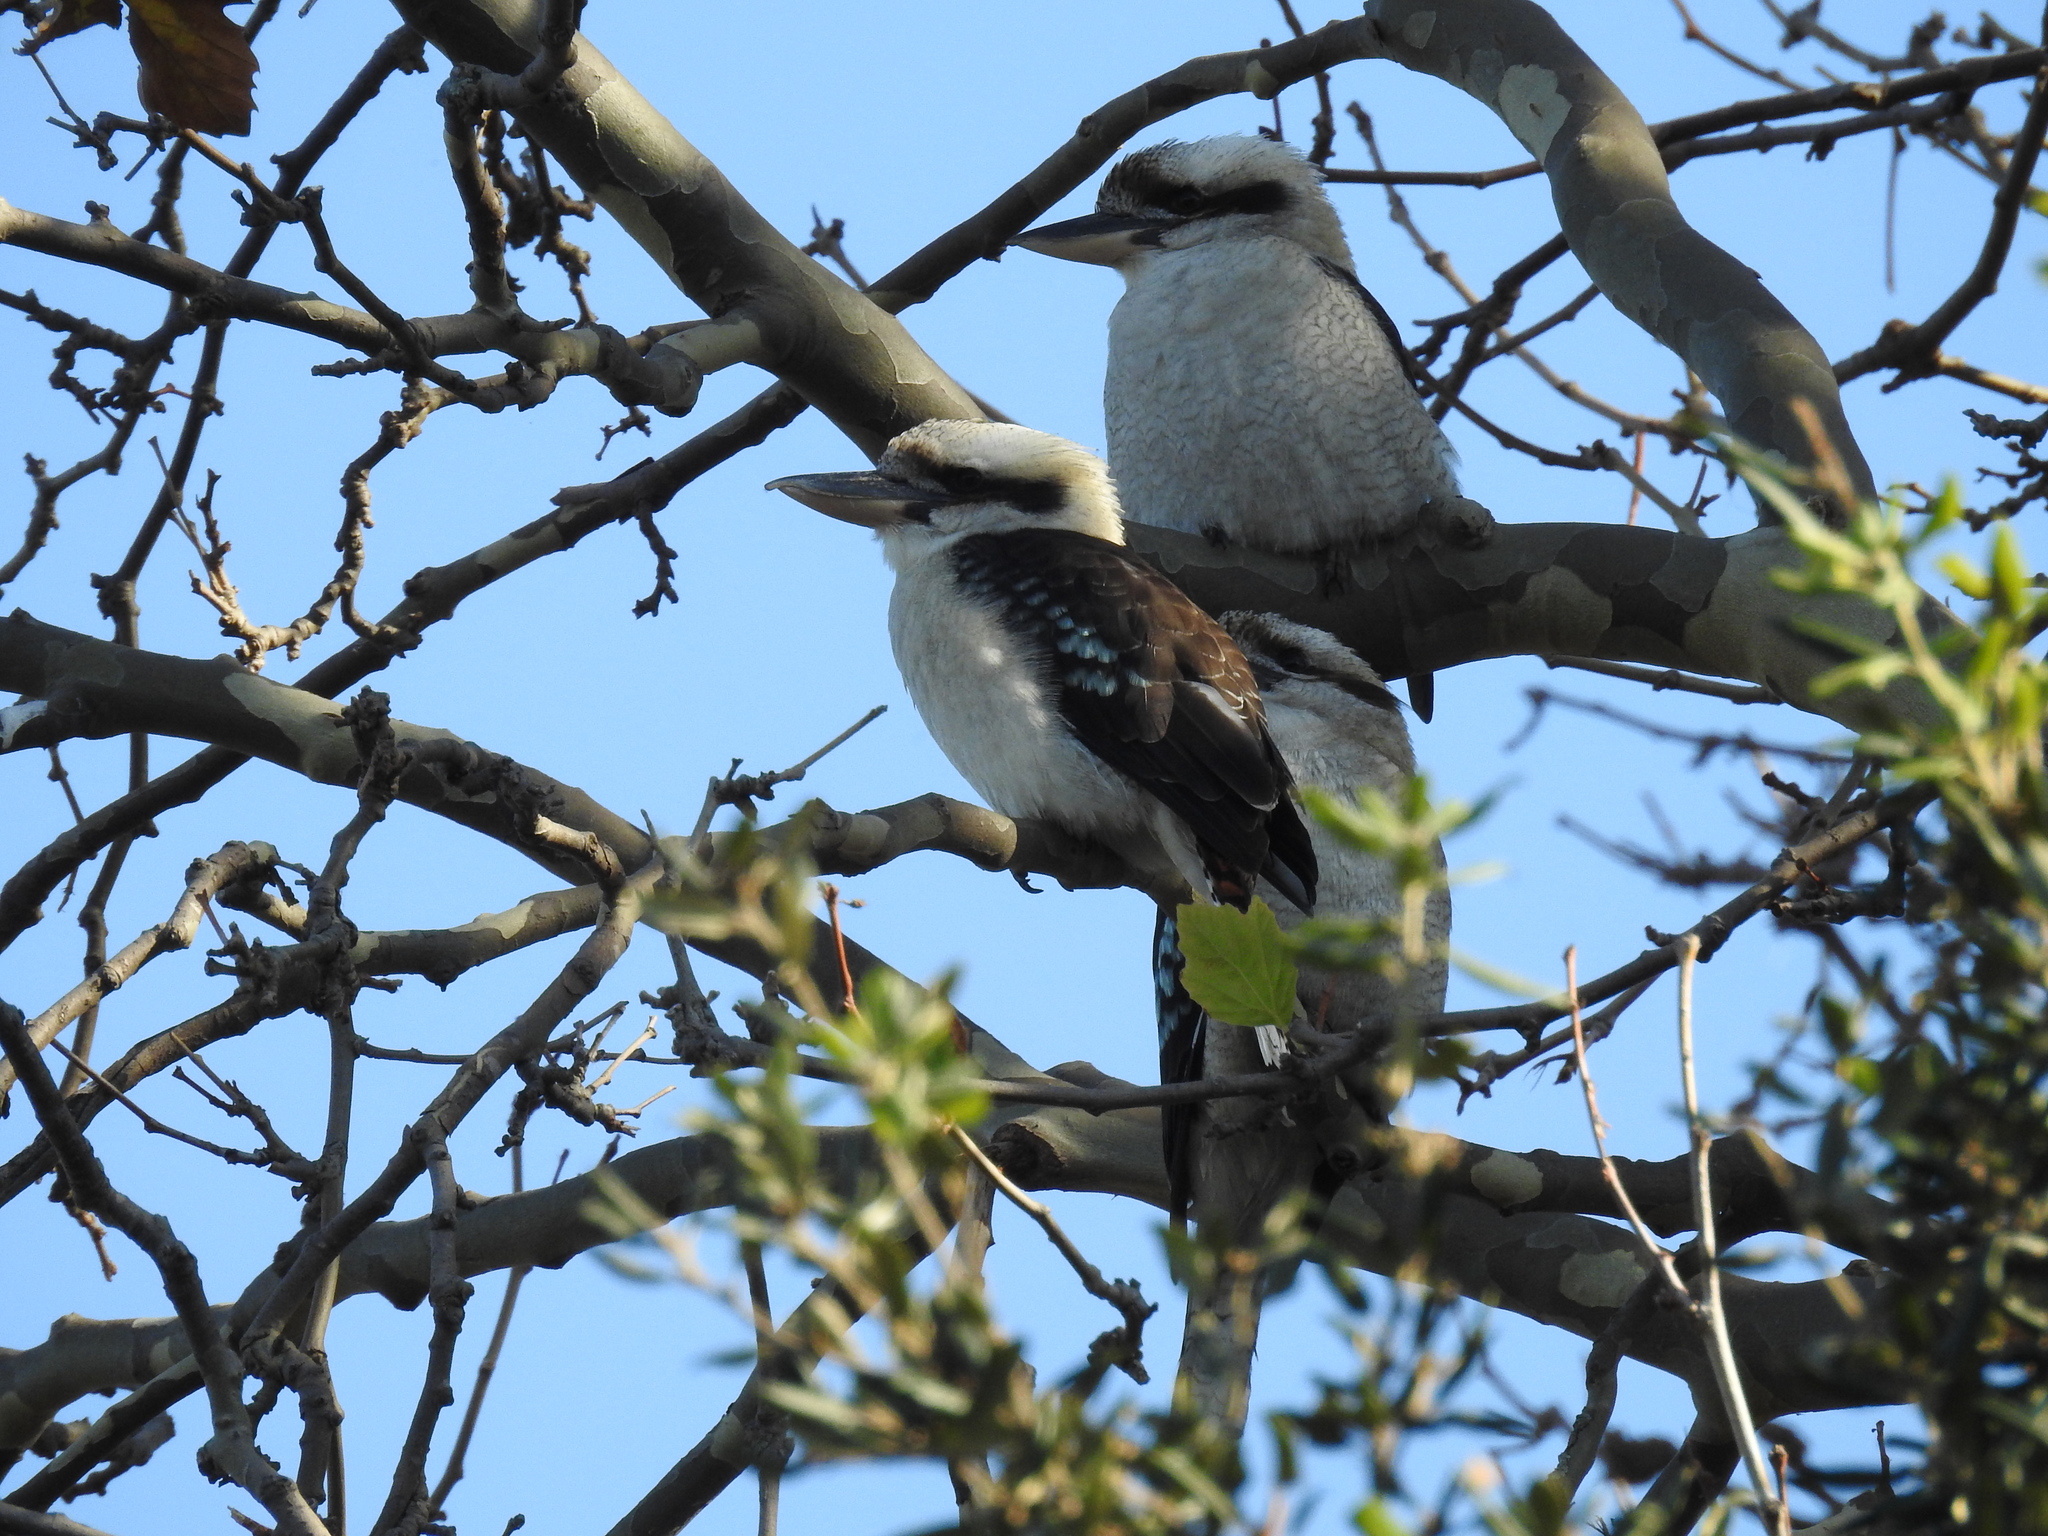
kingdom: Animalia
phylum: Chordata
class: Aves
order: Coraciiformes
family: Alcedinidae
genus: Dacelo
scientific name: Dacelo novaeguineae
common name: Laughing kookaburra
